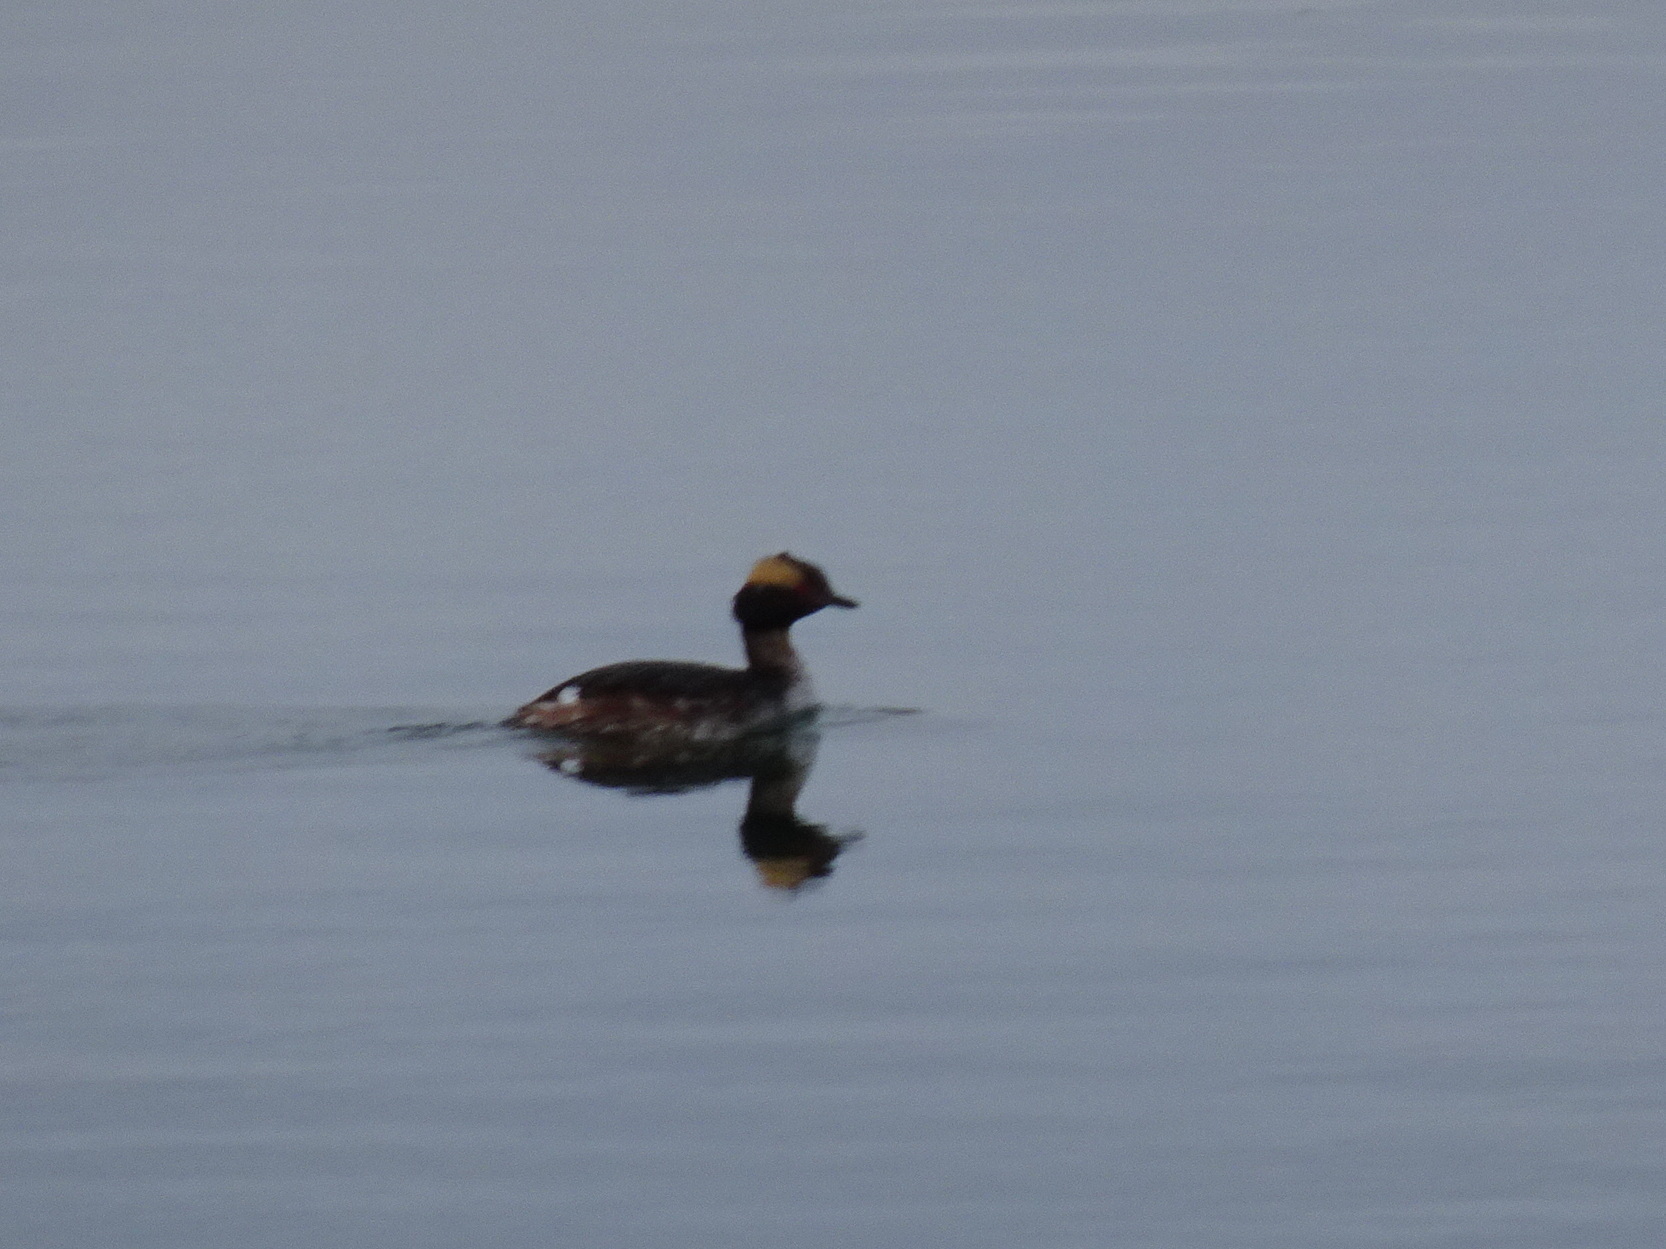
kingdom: Animalia
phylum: Chordata
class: Aves
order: Podicipediformes
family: Podicipedidae
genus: Podiceps
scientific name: Podiceps auritus
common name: Horned grebe
